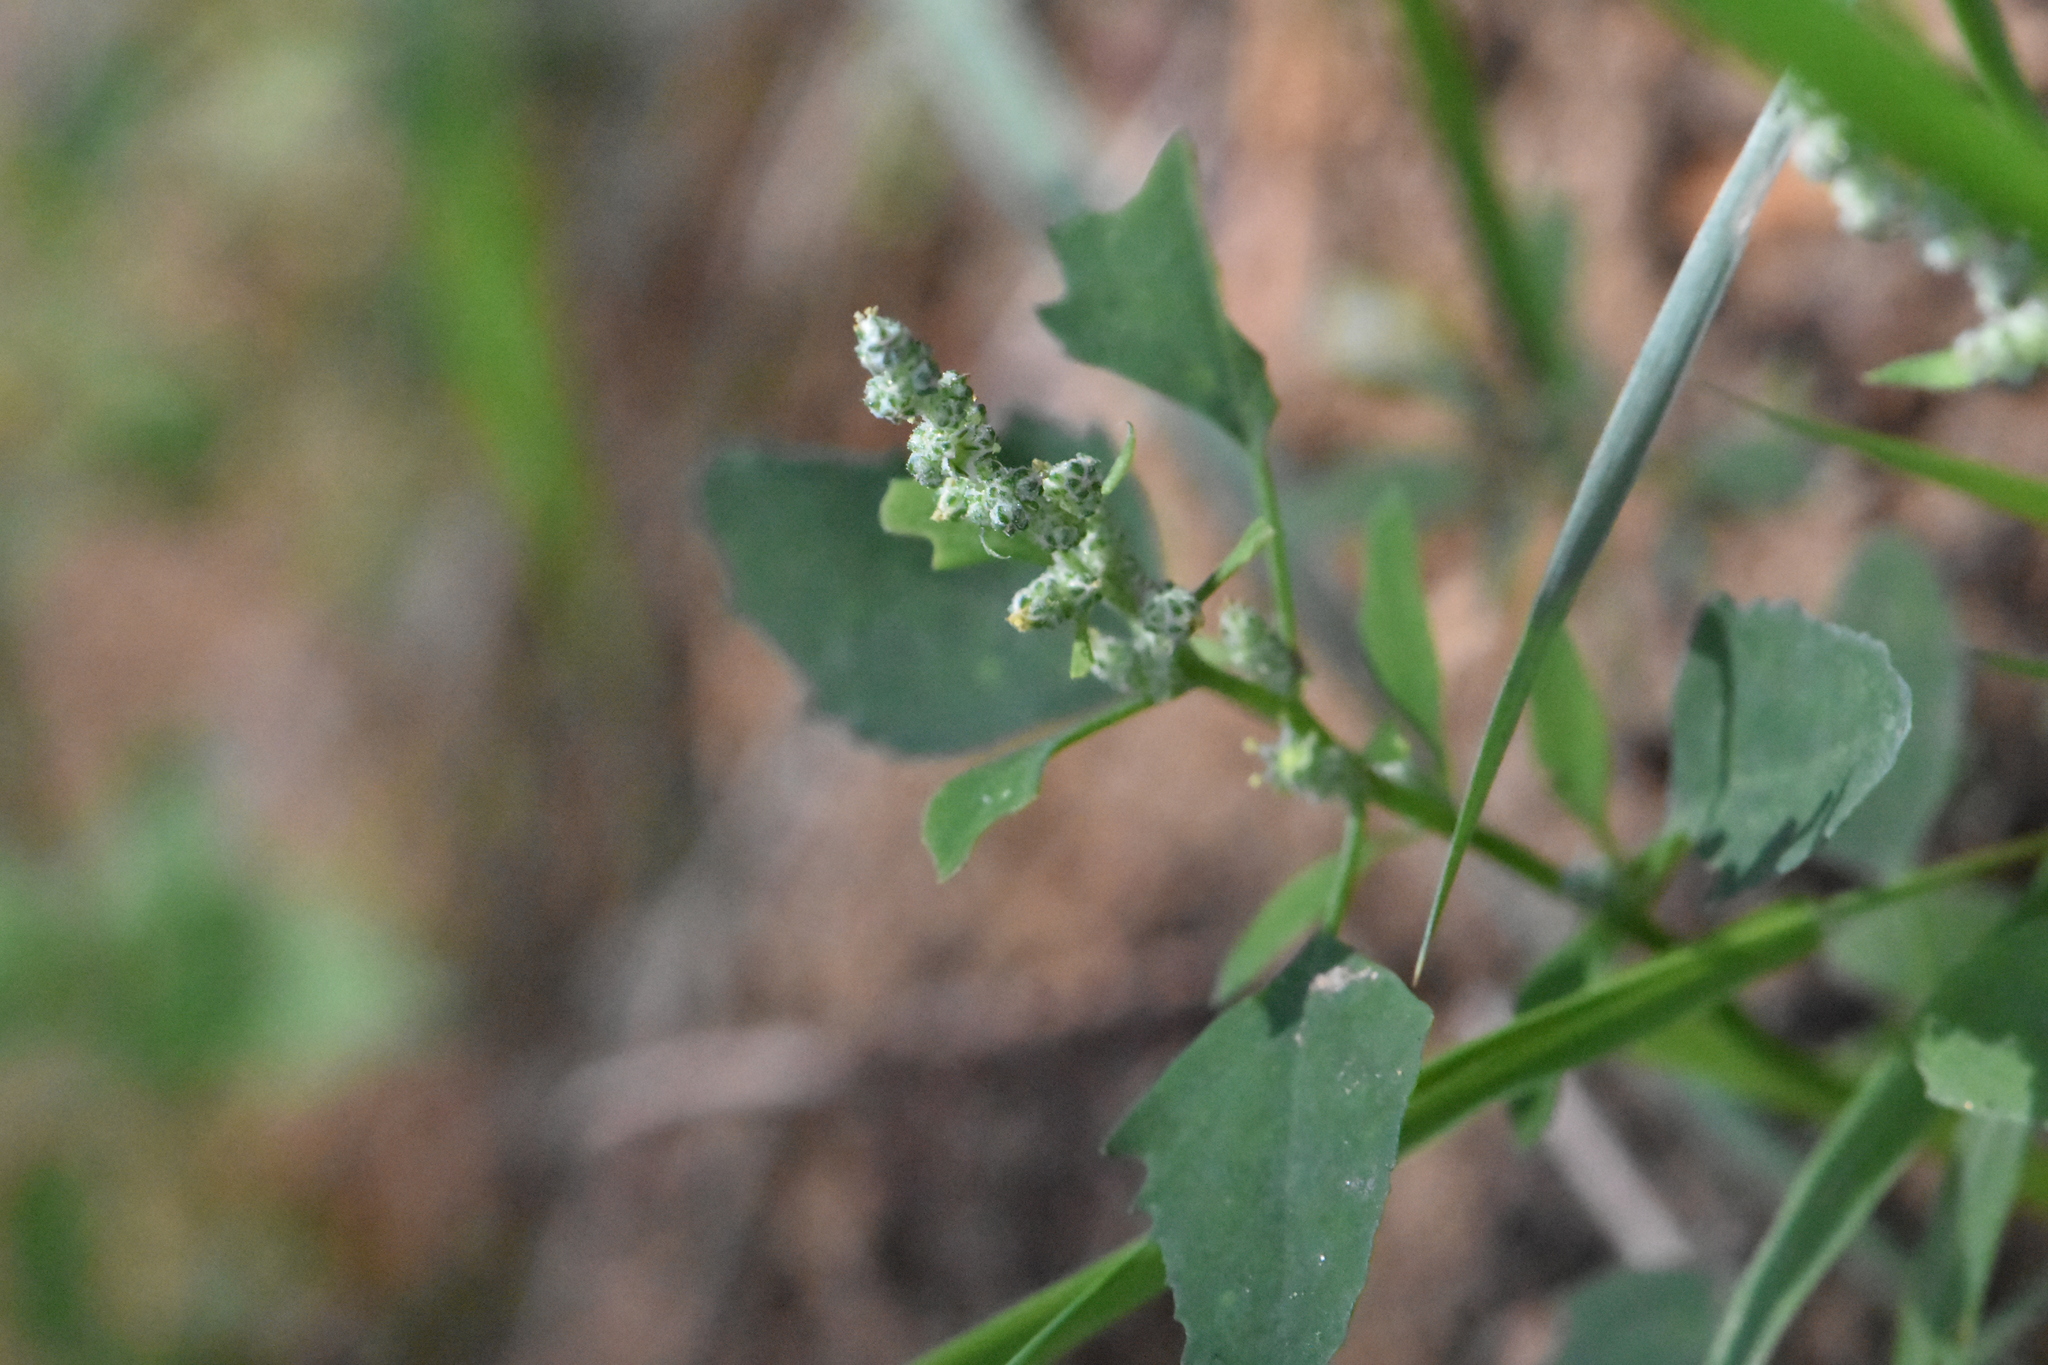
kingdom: Plantae
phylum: Tracheophyta
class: Magnoliopsida
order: Caryophyllales
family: Amaranthaceae
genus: Chenopodium
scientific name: Chenopodium album
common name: Fat-hen
